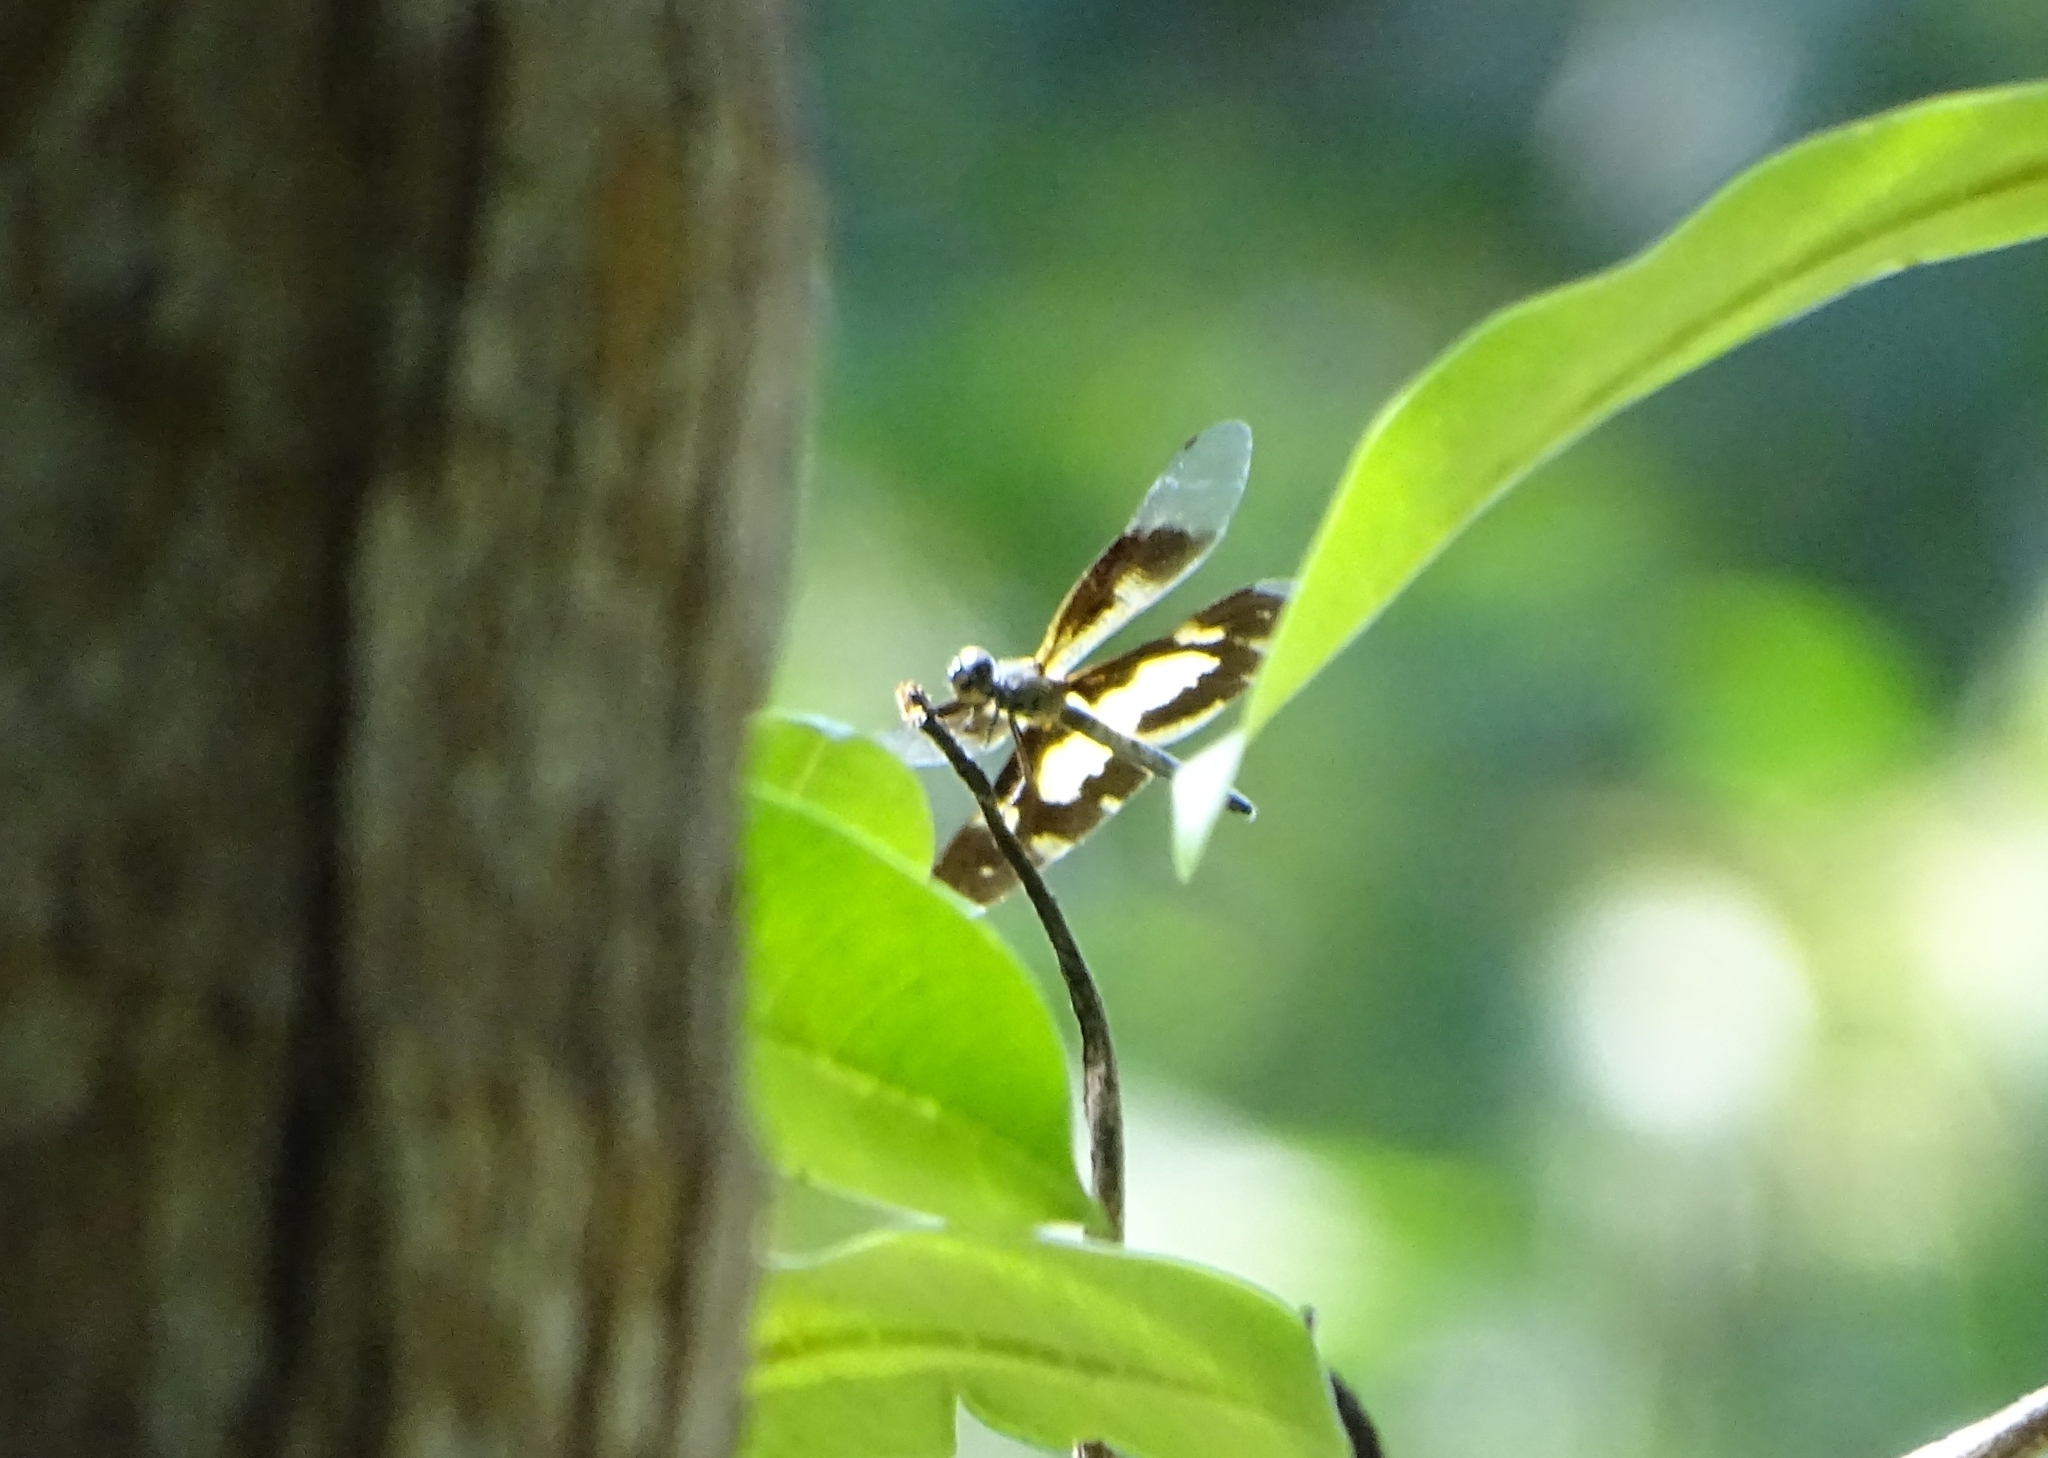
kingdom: Animalia
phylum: Arthropoda
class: Insecta
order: Odonata
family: Libellulidae
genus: Rhyothemis
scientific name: Rhyothemis variegata
